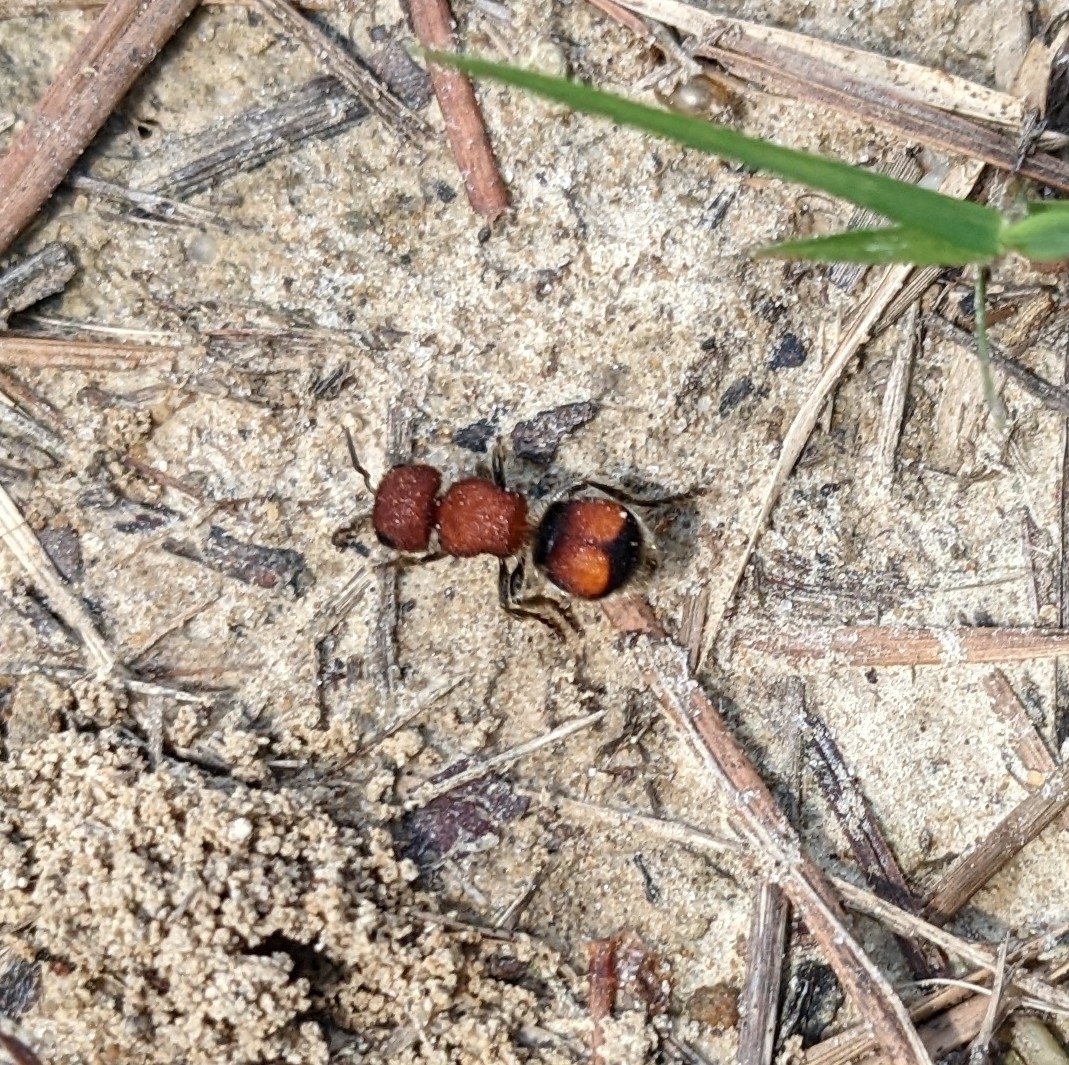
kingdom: Animalia
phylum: Arthropoda
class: Insecta
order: Hymenoptera
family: Mutillidae
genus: Pseudomethoca
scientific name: Pseudomethoca
